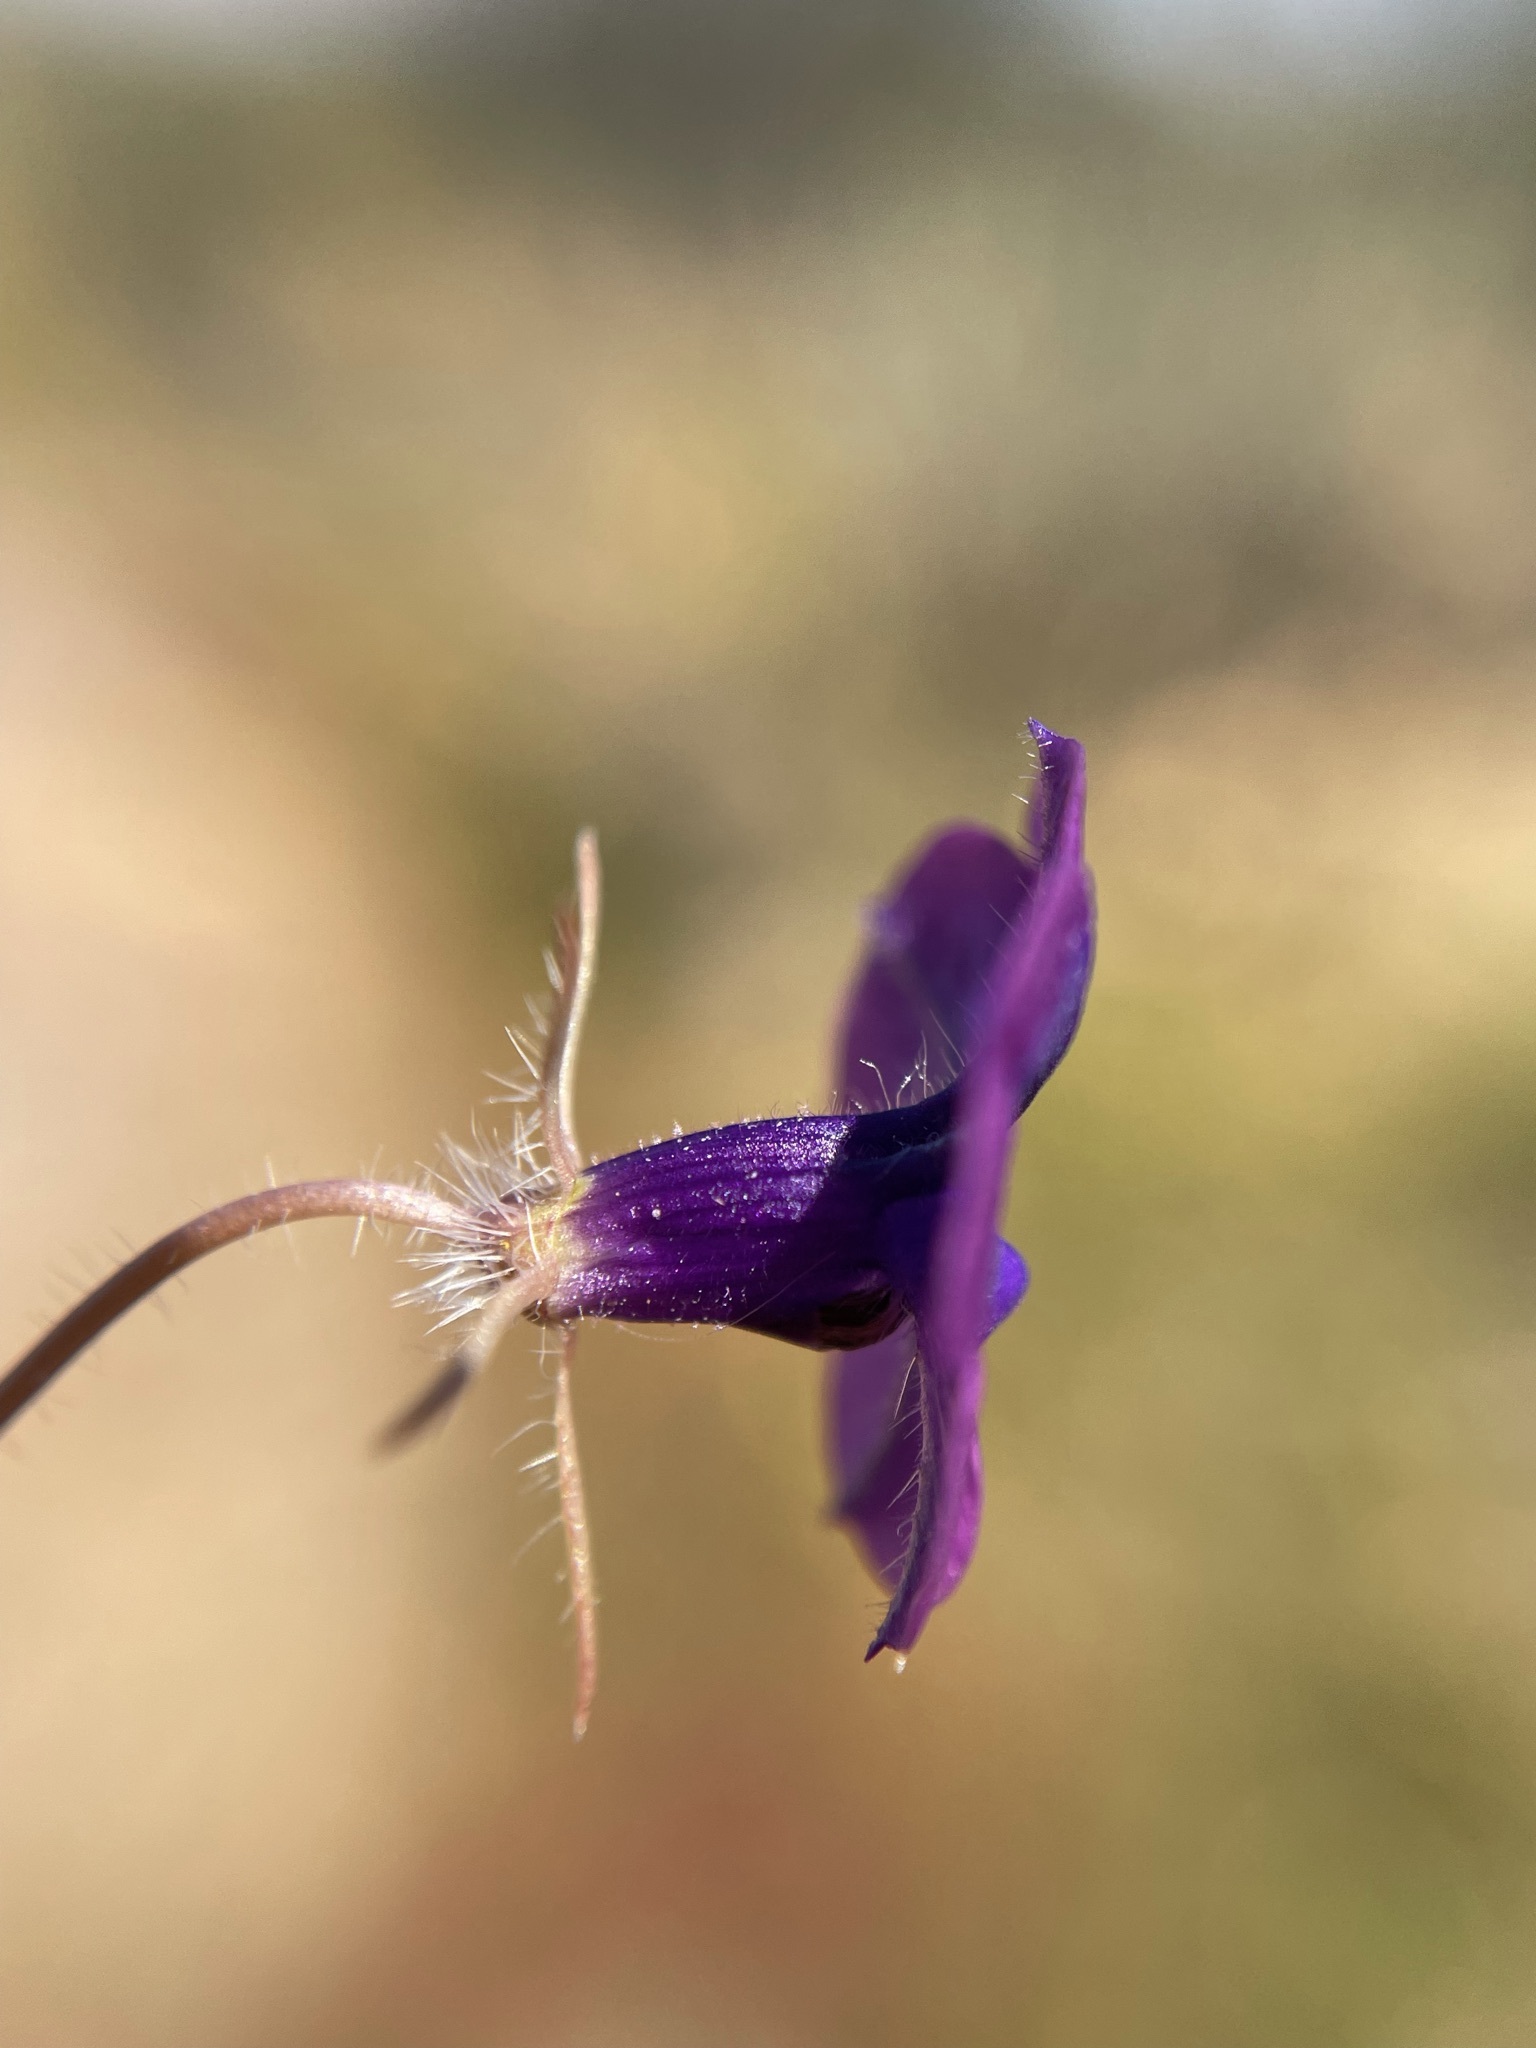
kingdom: Plantae
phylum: Tracheophyta
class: Magnoliopsida
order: Asterales
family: Campanulaceae
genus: Monopsis
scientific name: Monopsis debilis
